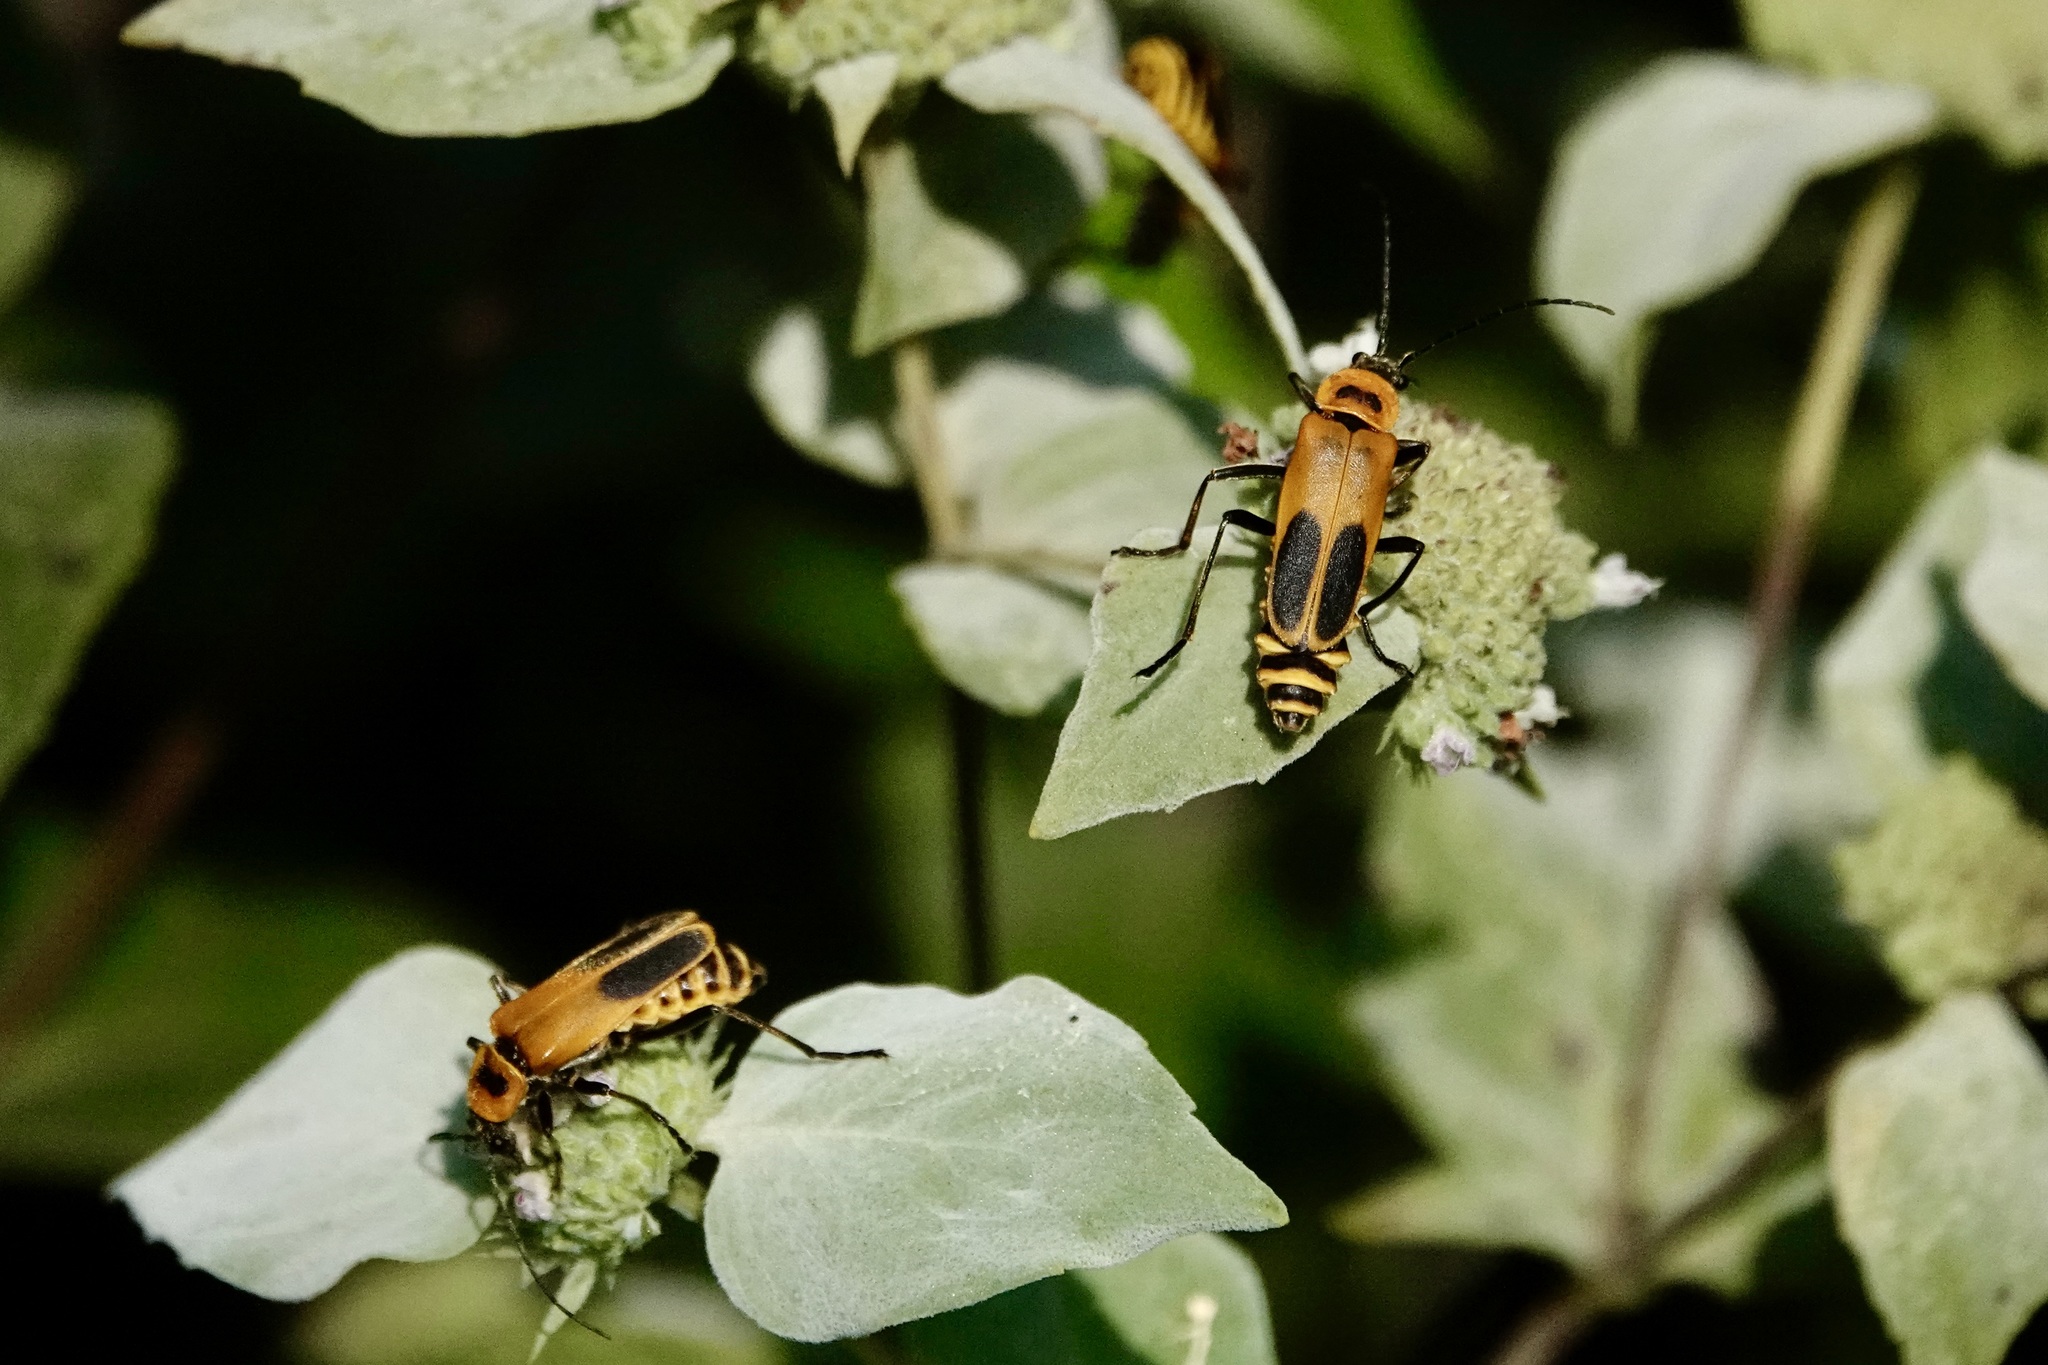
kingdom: Animalia
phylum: Arthropoda
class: Insecta
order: Coleoptera
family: Cantharidae
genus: Chauliognathus
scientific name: Chauliognathus pensylvanicus
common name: Goldenrod soldier beetle
